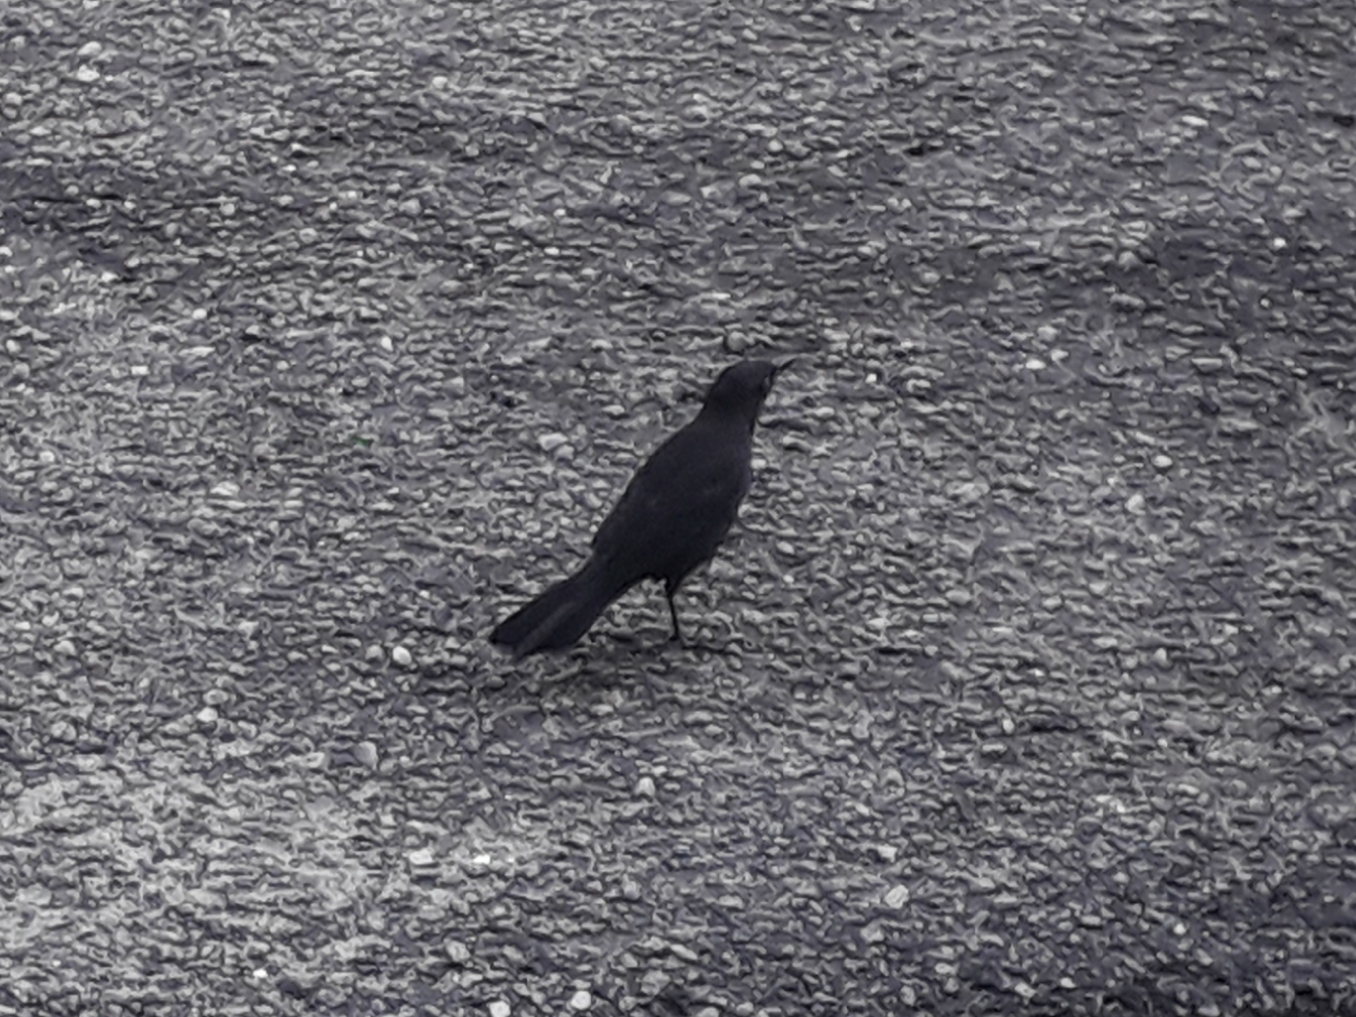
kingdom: Animalia
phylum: Chordata
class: Aves
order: Passeriformes
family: Icteridae
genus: Quiscalus
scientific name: Quiscalus lugubris
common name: Carib grackle
